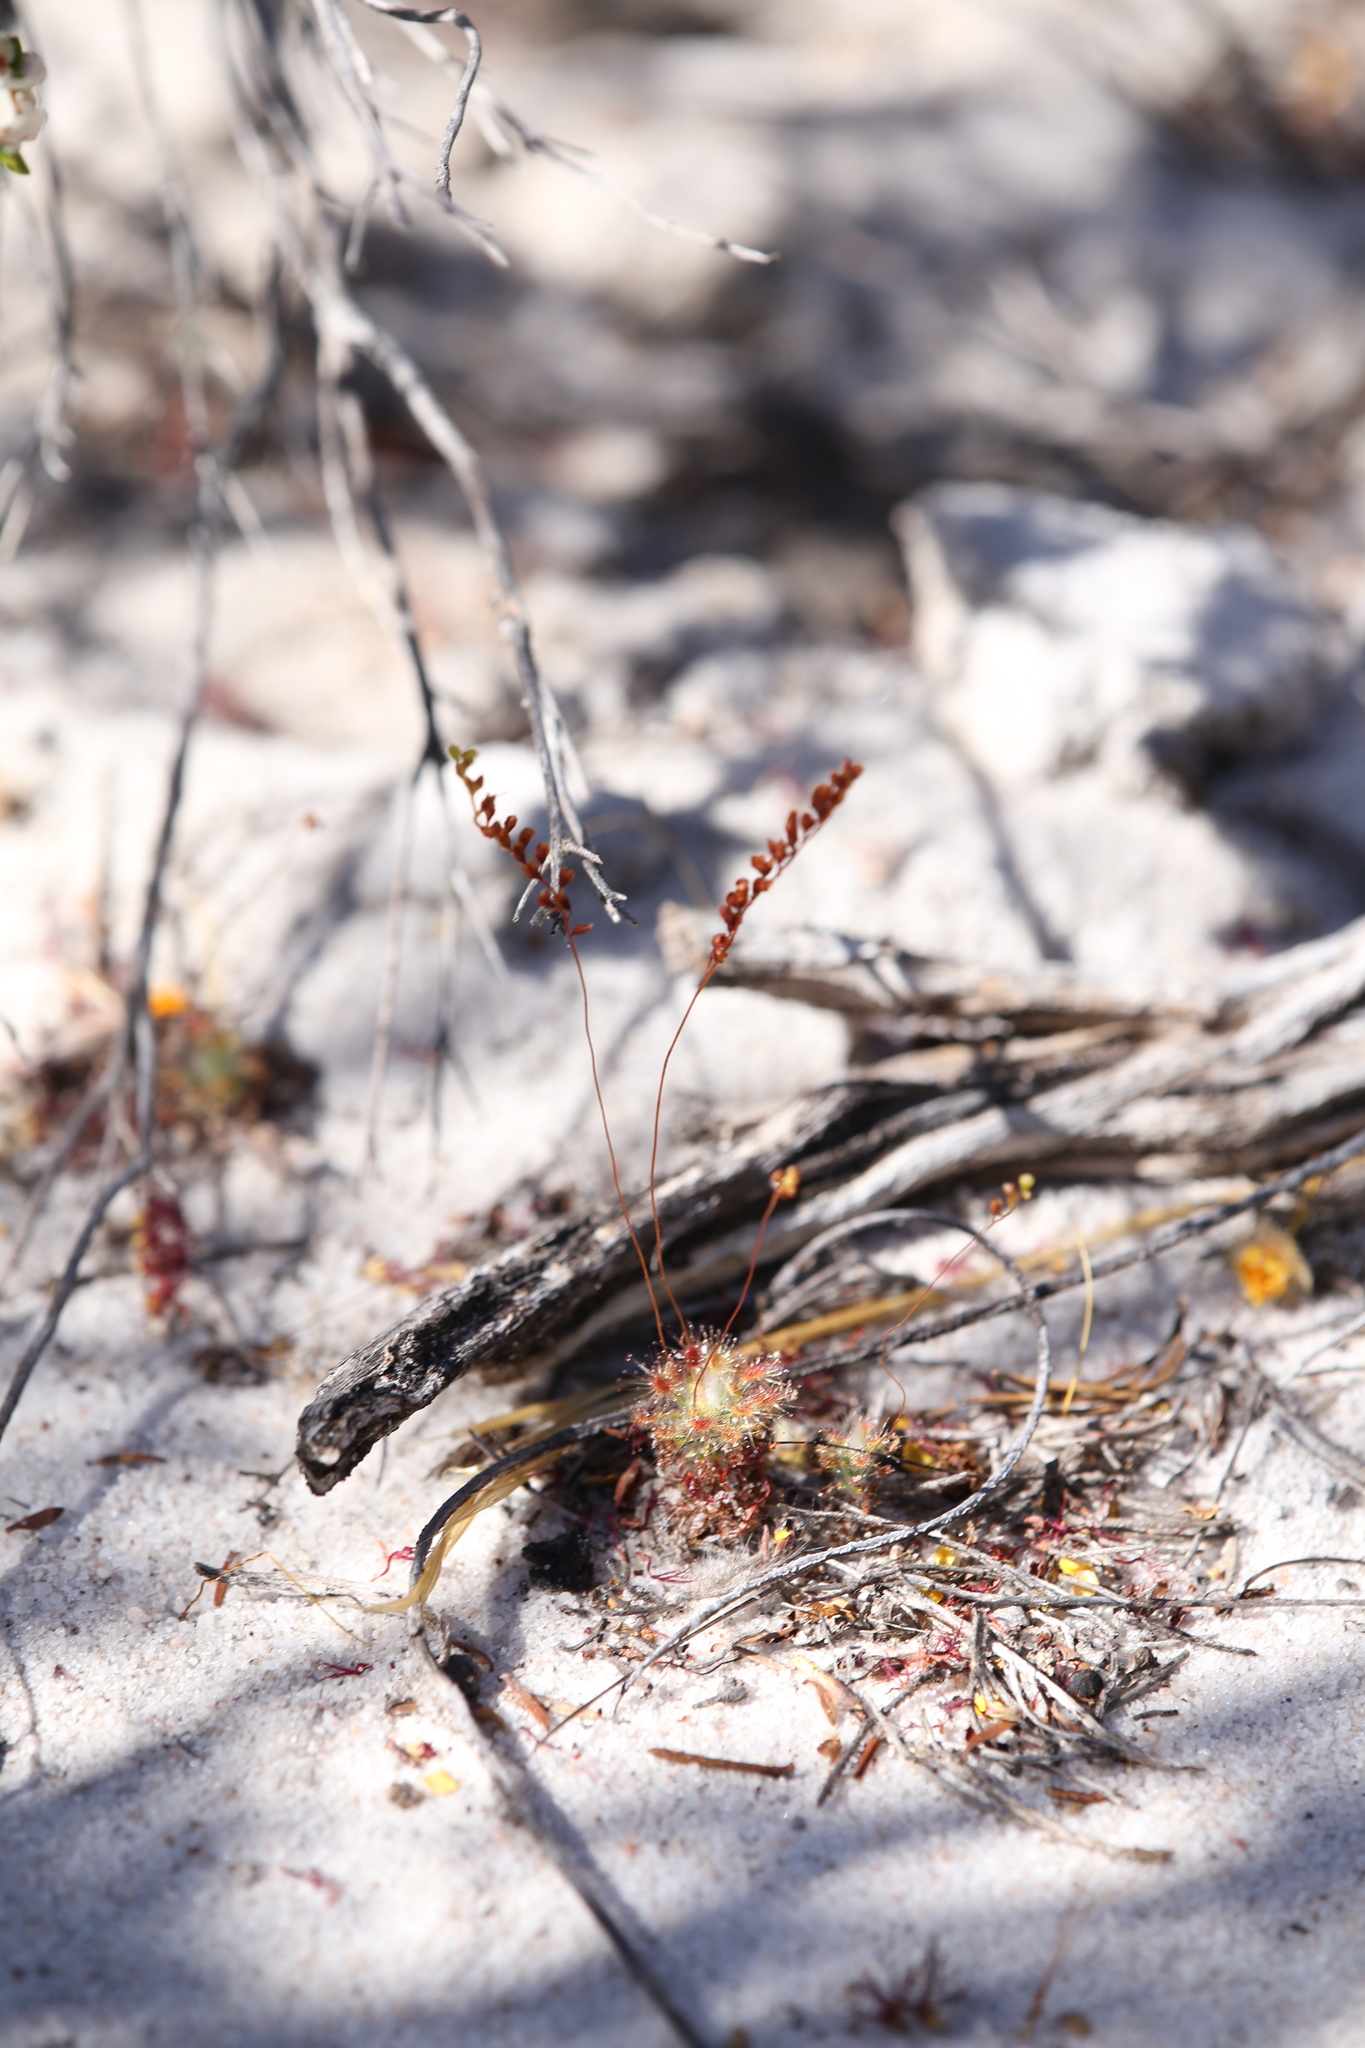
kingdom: Plantae
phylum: Tracheophyta
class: Magnoliopsida
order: Caryophyllales
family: Droseraceae
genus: Drosera
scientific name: Drosera paleacea
